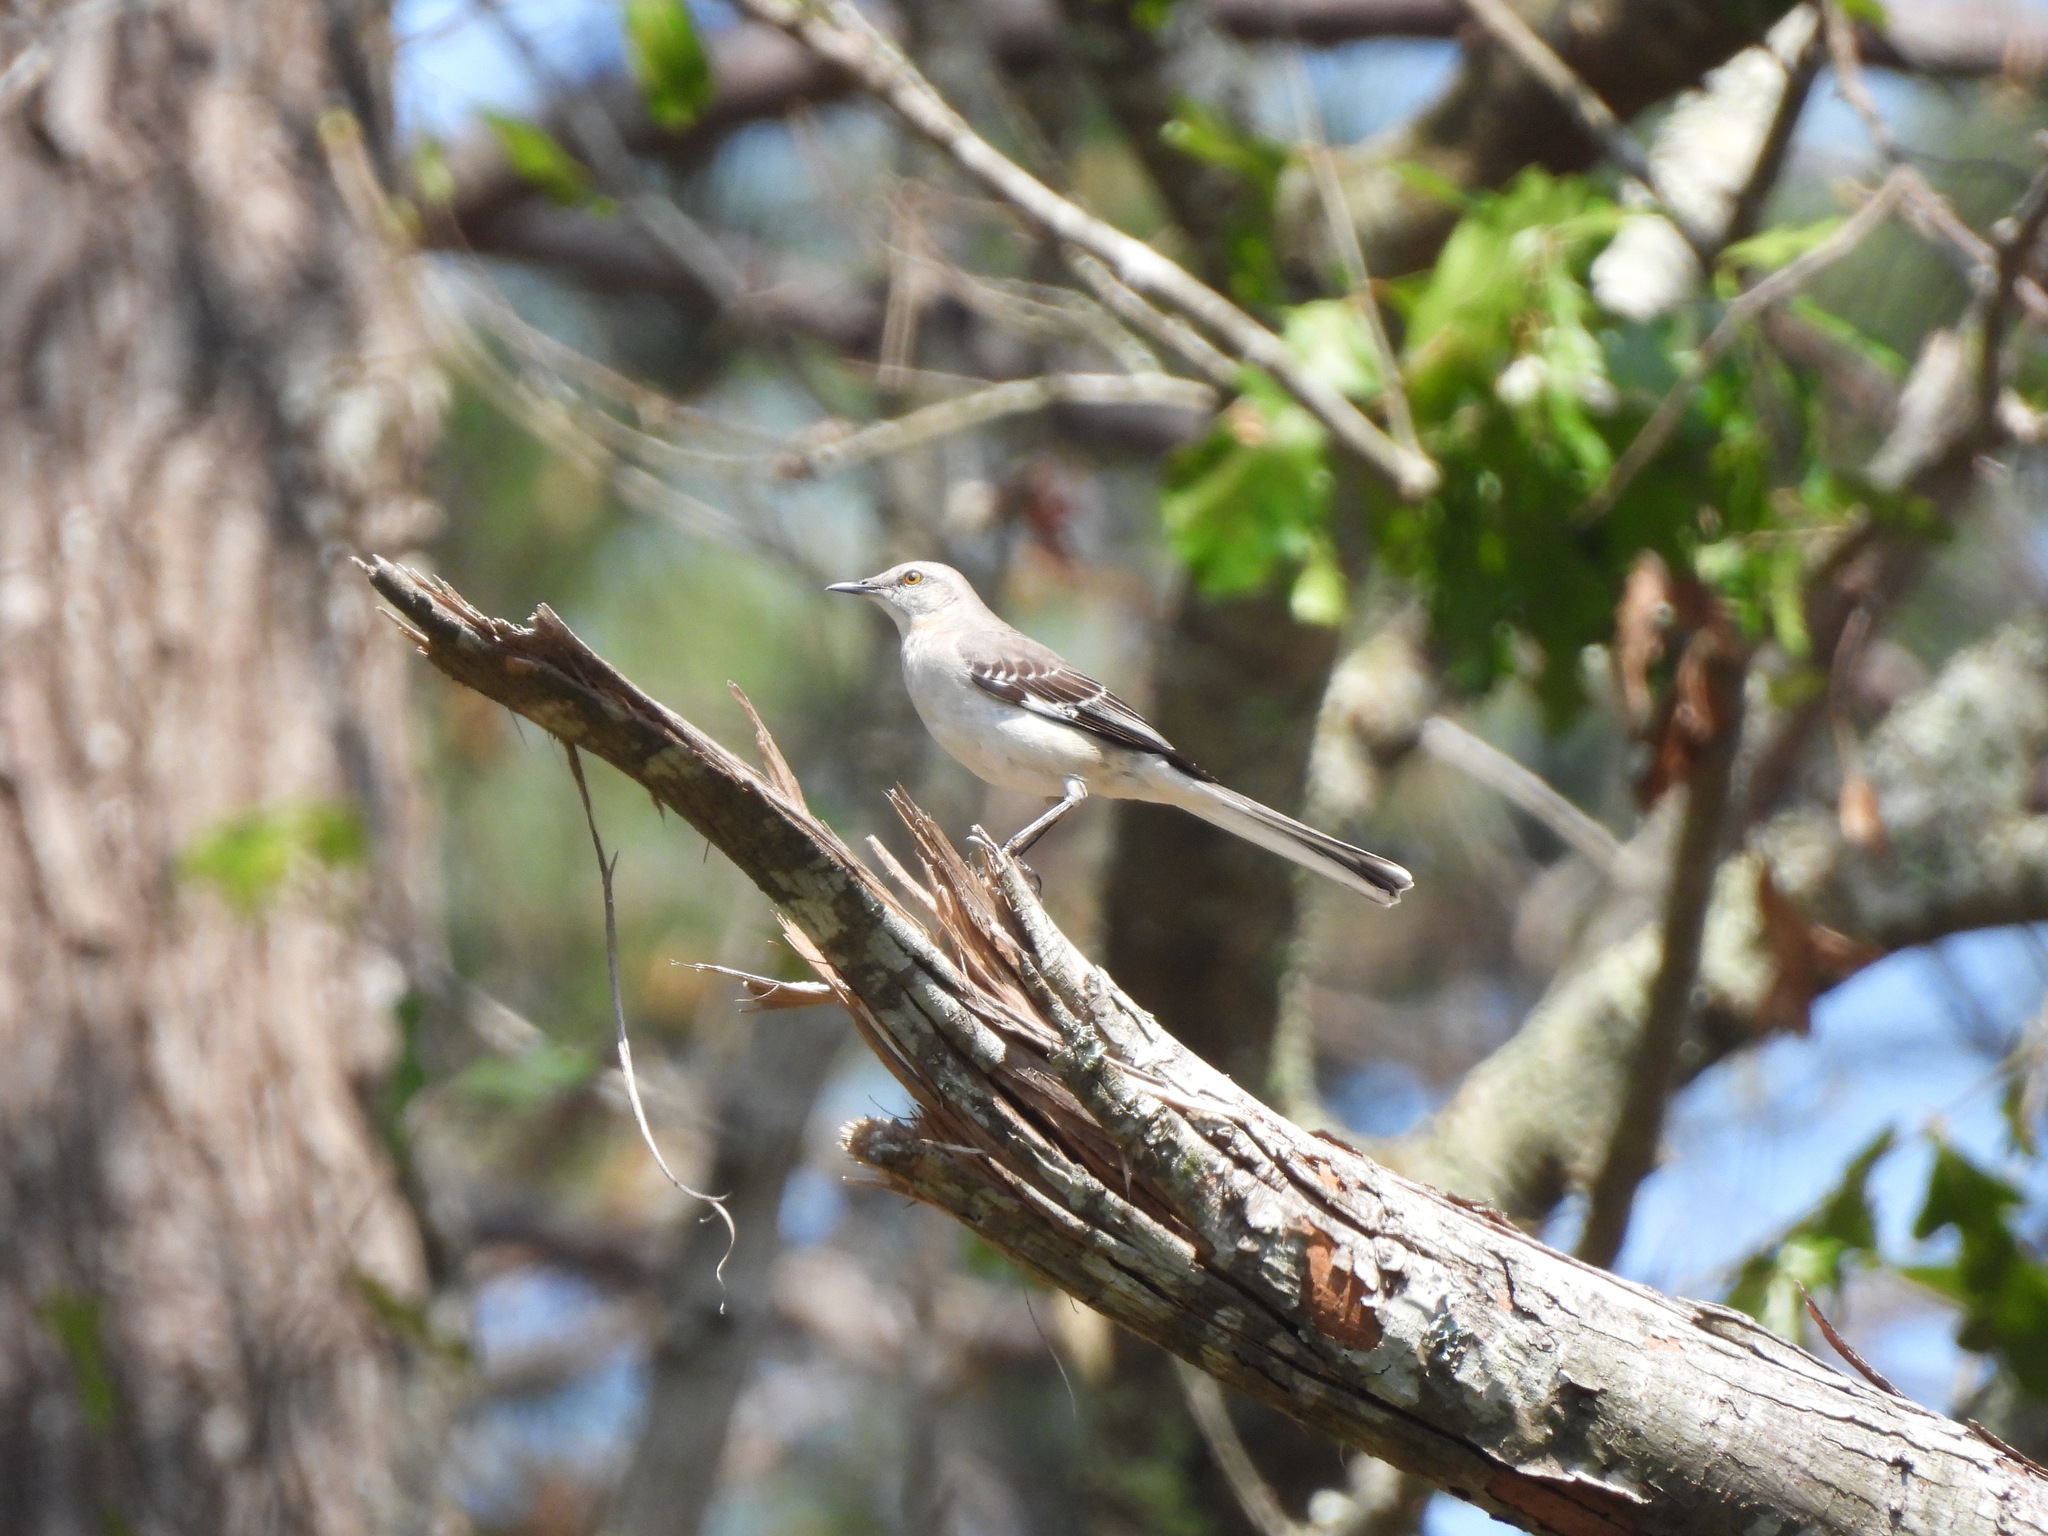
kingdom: Animalia
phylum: Chordata
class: Aves
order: Passeriformes
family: Mimidae
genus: Mimus
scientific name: Mimus polyglottos
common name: Northern mockingbird
